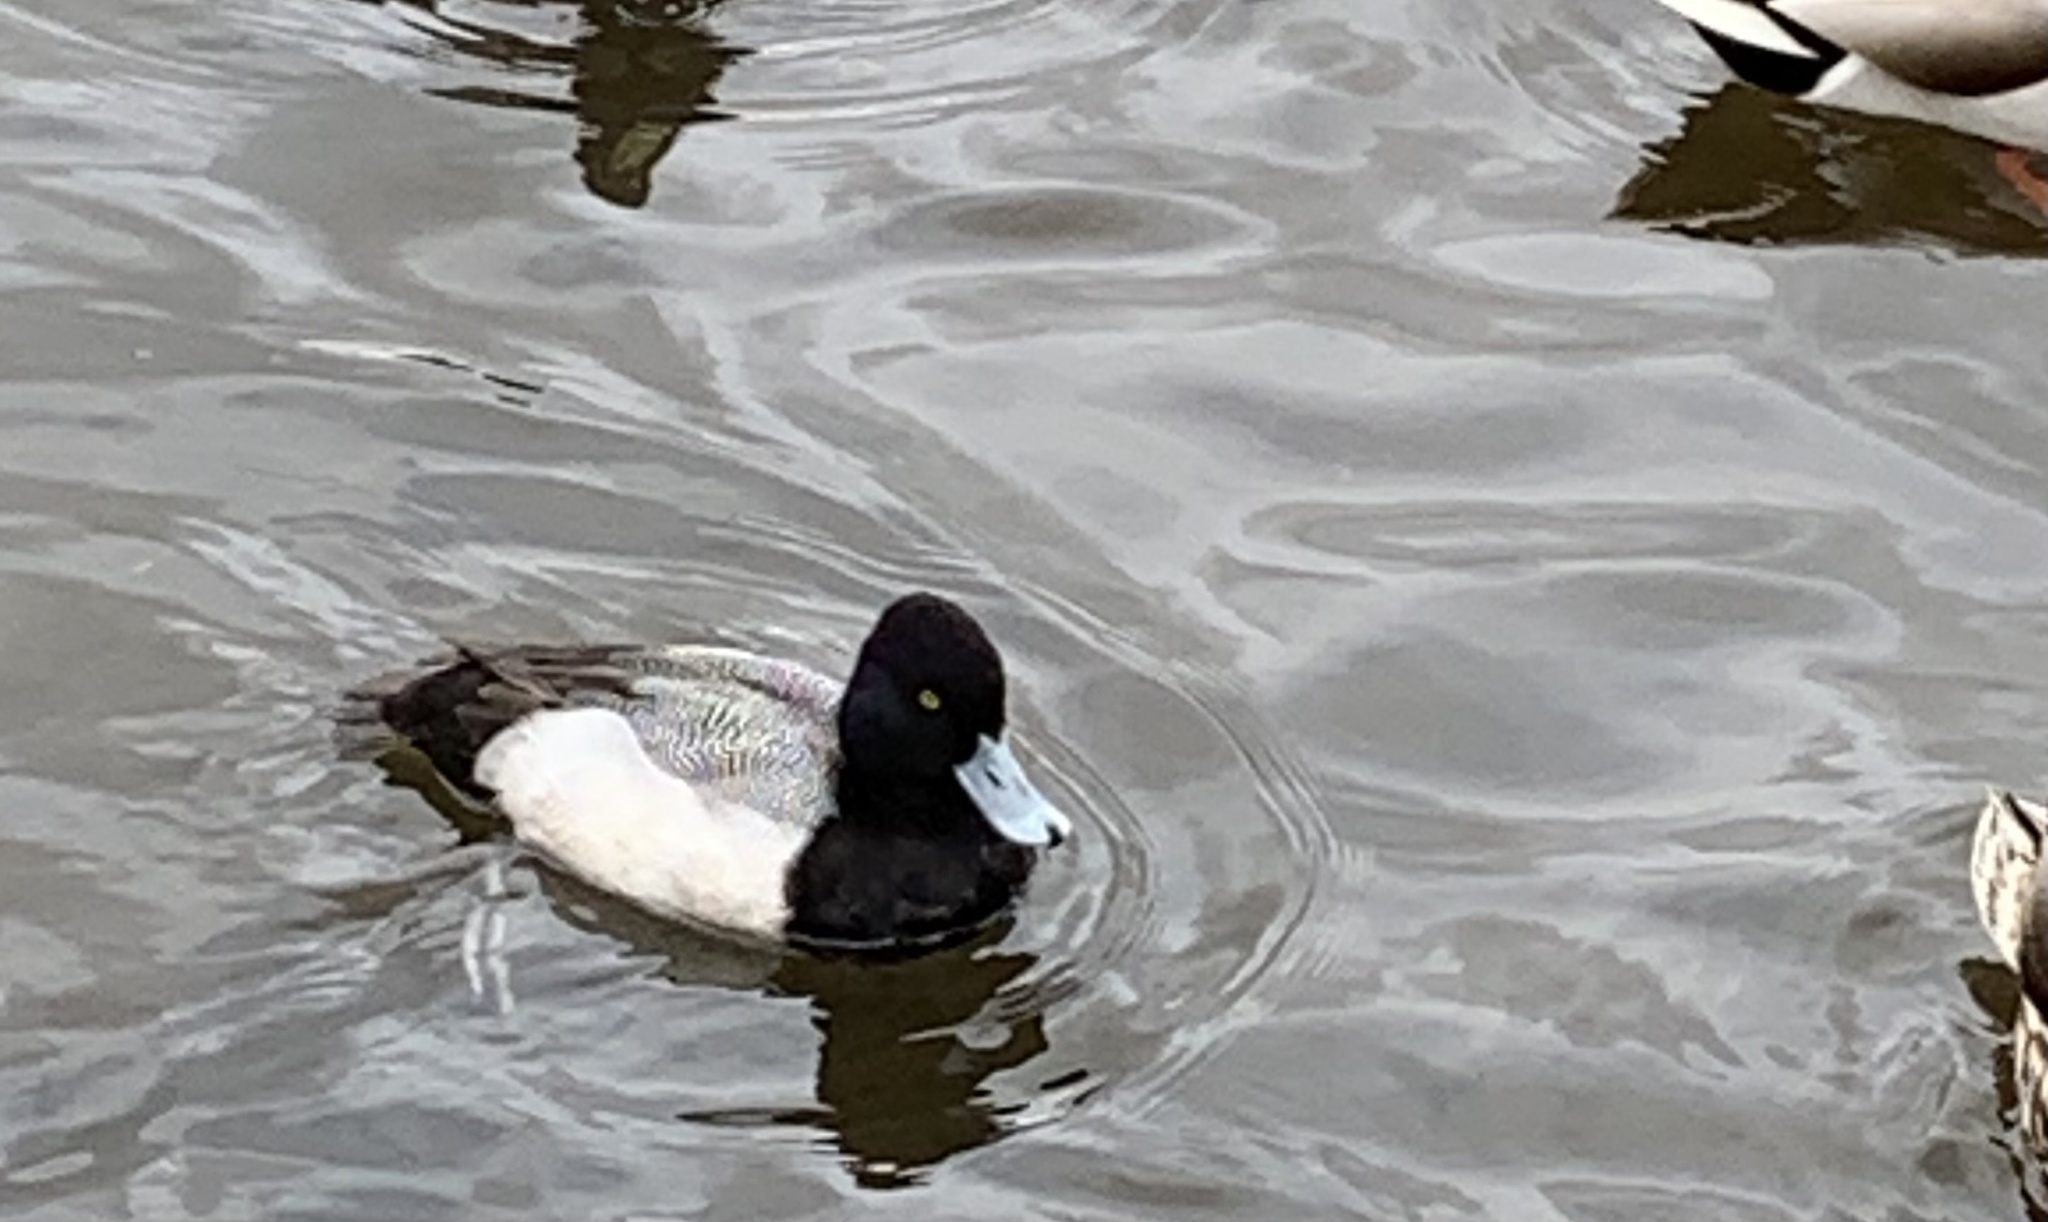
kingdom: Animalia
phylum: Chordata
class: Aves
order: Anseriformes
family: Anatidae
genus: Aythya
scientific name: Aythya affinis
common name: Lesser scaup
